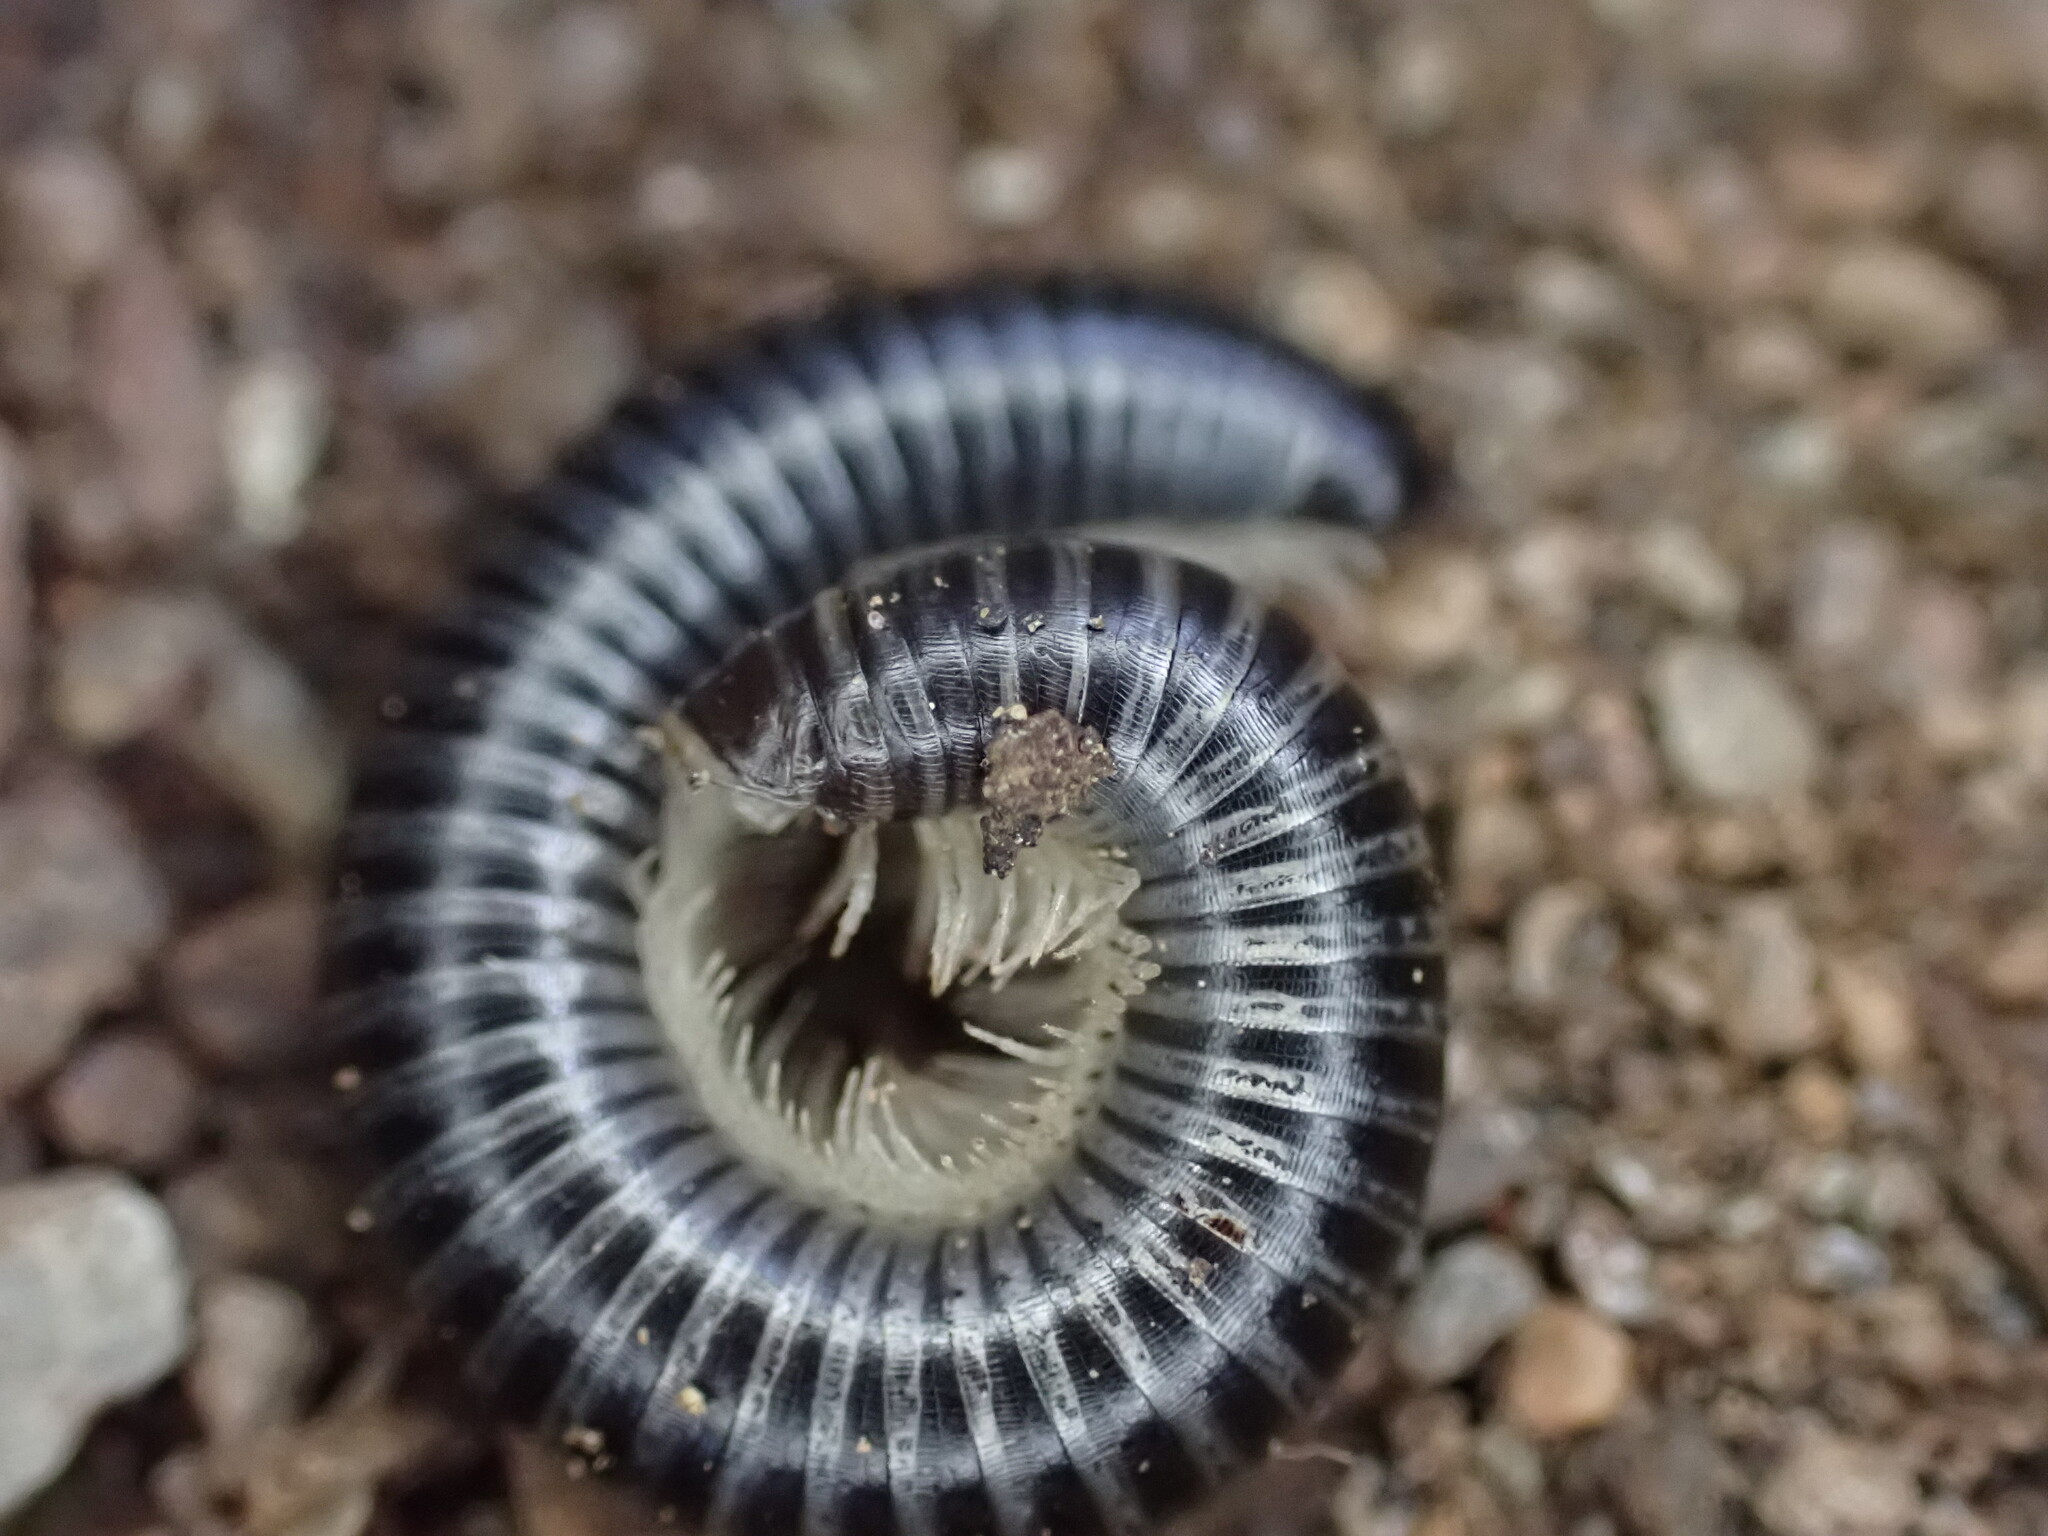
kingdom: Animalia
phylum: Arthropoda
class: Diplopoda
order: Julida
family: Julidae
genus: Ommatoiulus
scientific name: Ommatoiulus sabulosus
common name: Striped millipede
